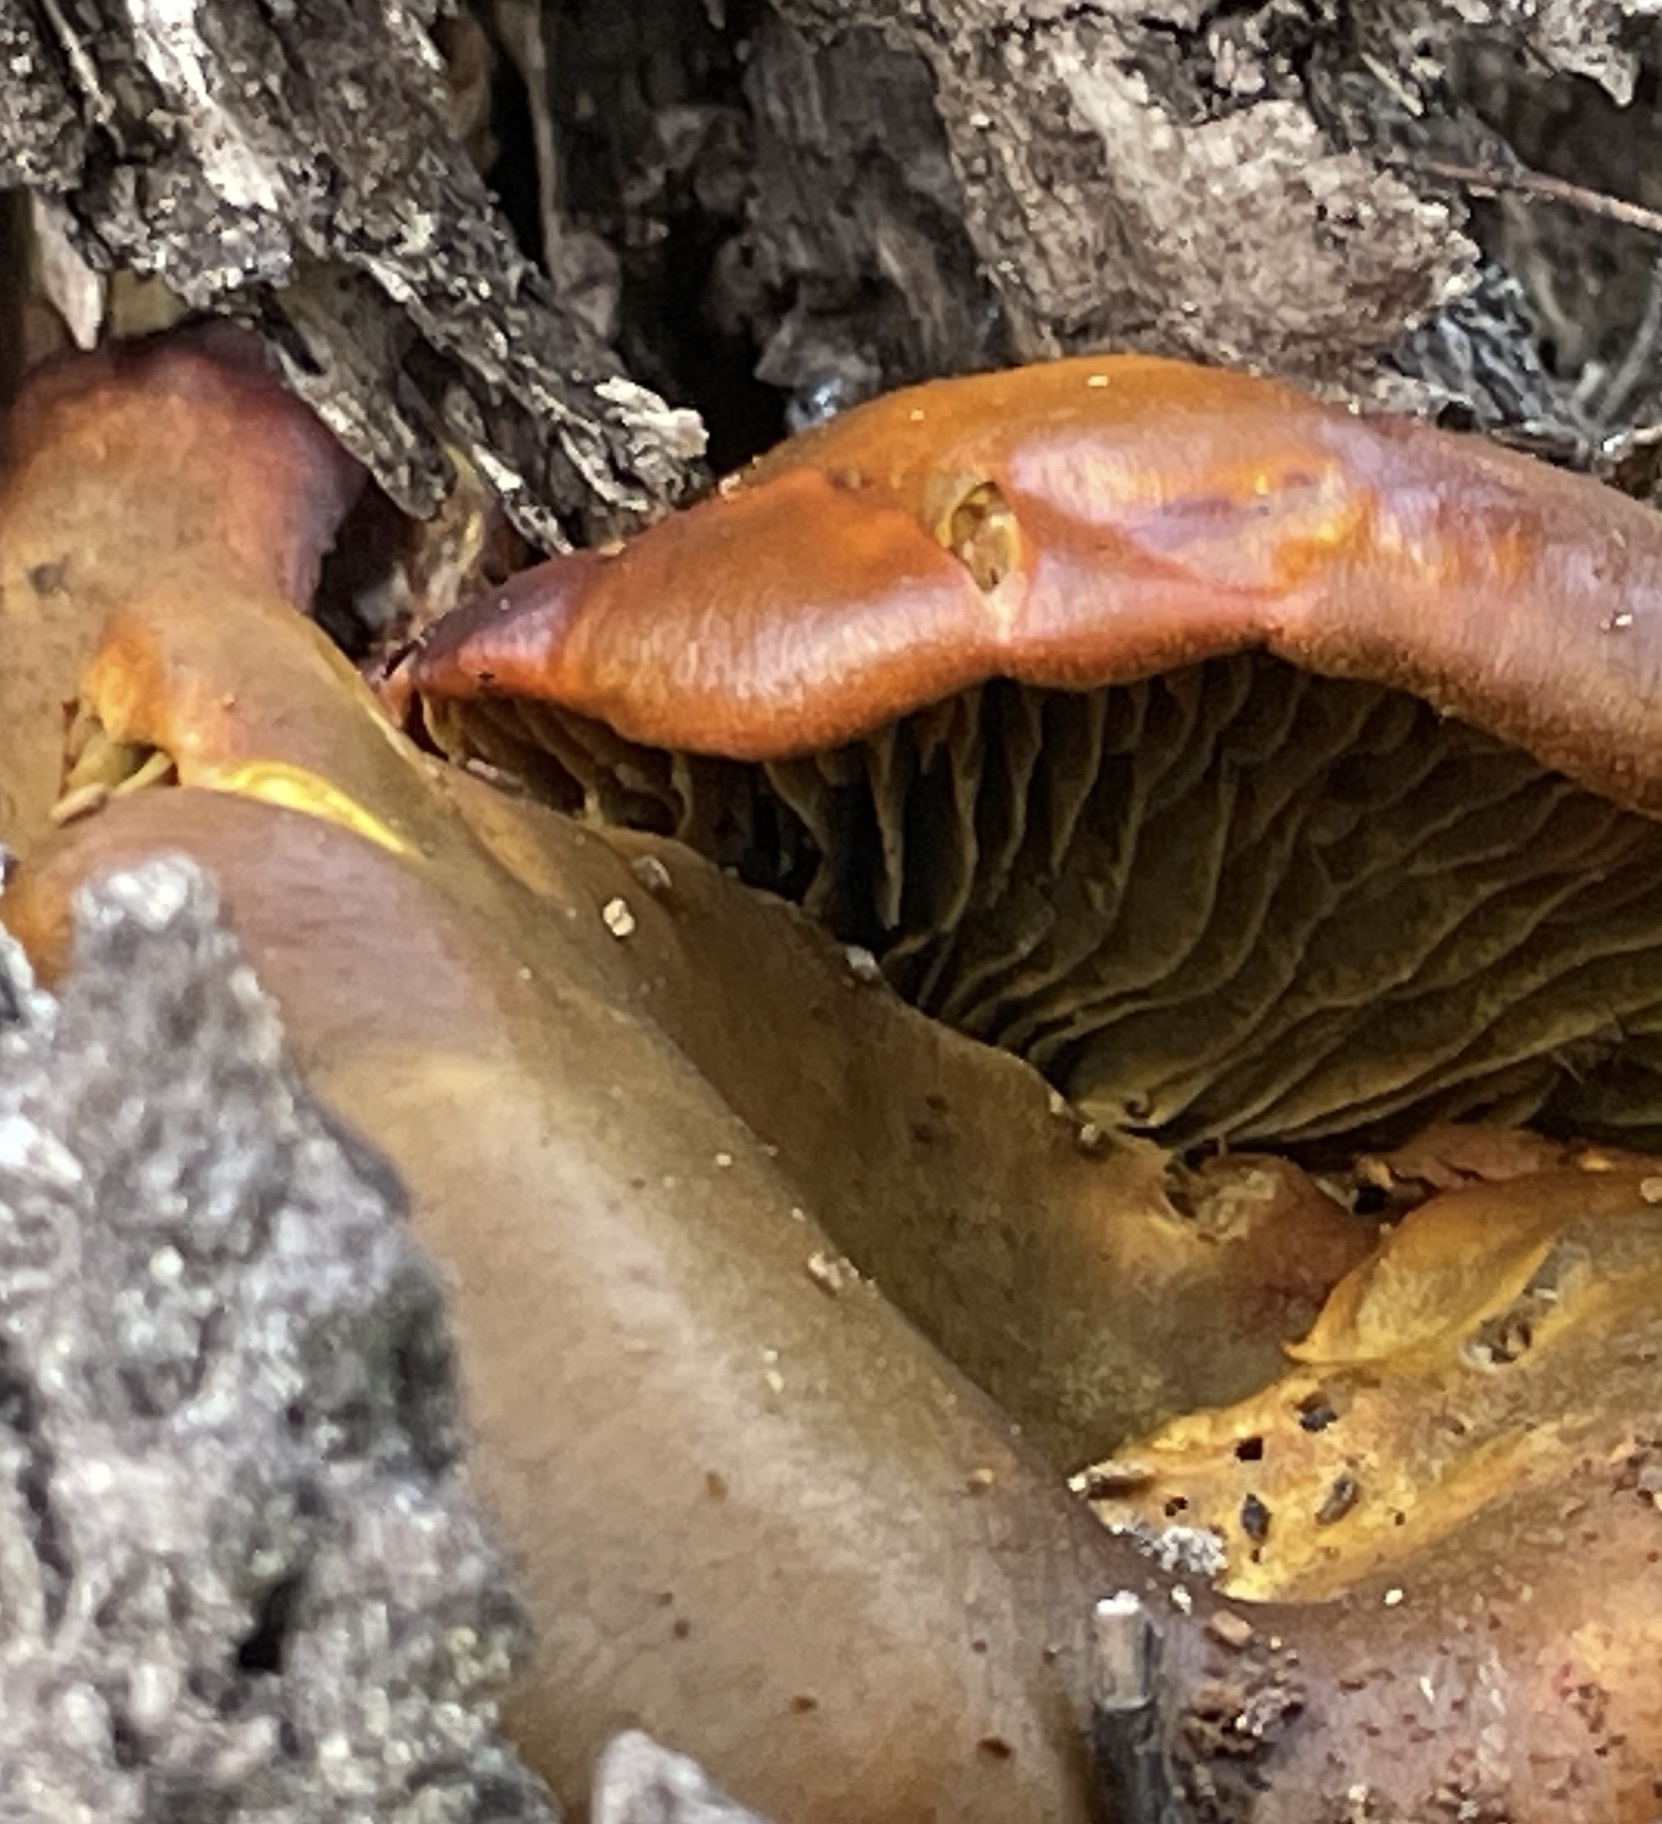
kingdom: Fungi
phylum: Basidiomycota
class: Agaricomycetes
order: Agaricales
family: Omphalotaceae
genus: Omphalotus
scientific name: Omphalotus olivascens
